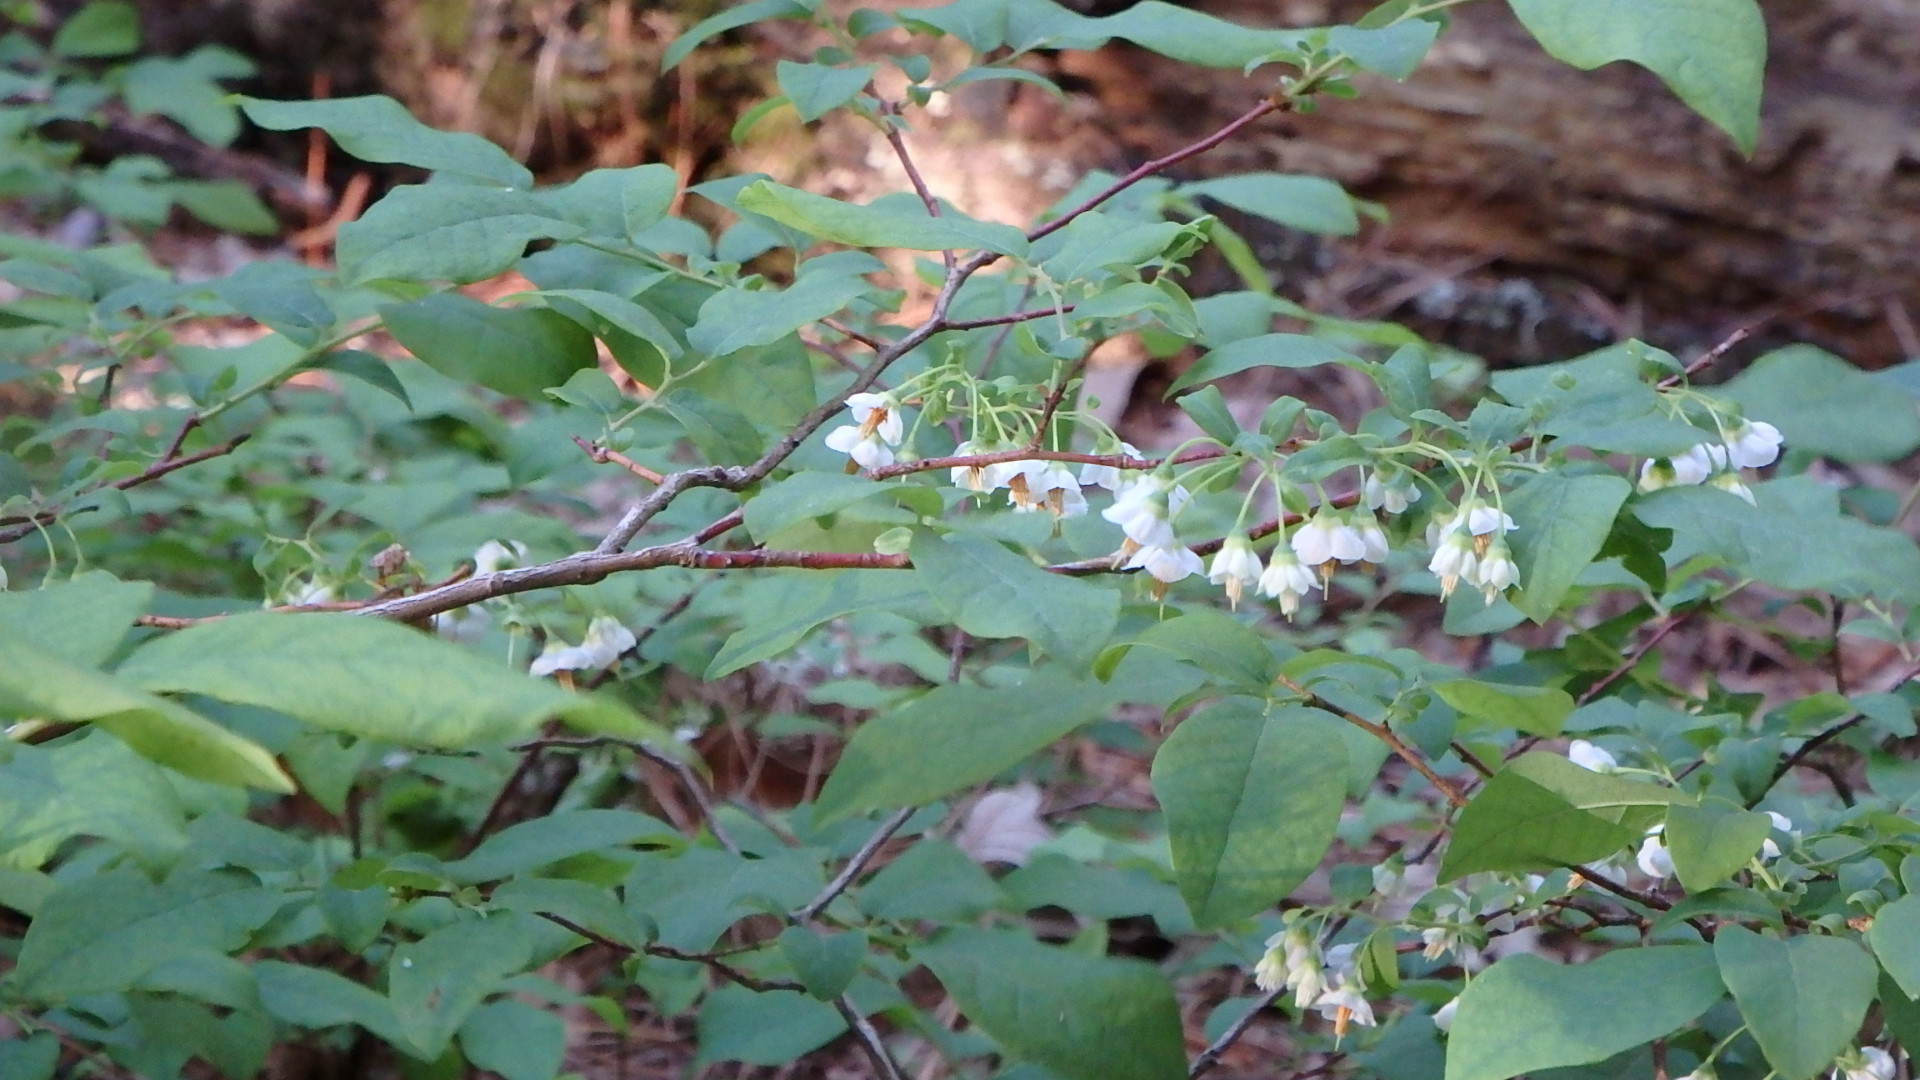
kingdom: Plantae
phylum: Tracheophyta
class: Magnoliopsida
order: Ericales
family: Ericaceae
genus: Vaccinium
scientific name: Vaccinium stamineum
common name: Deerberry
